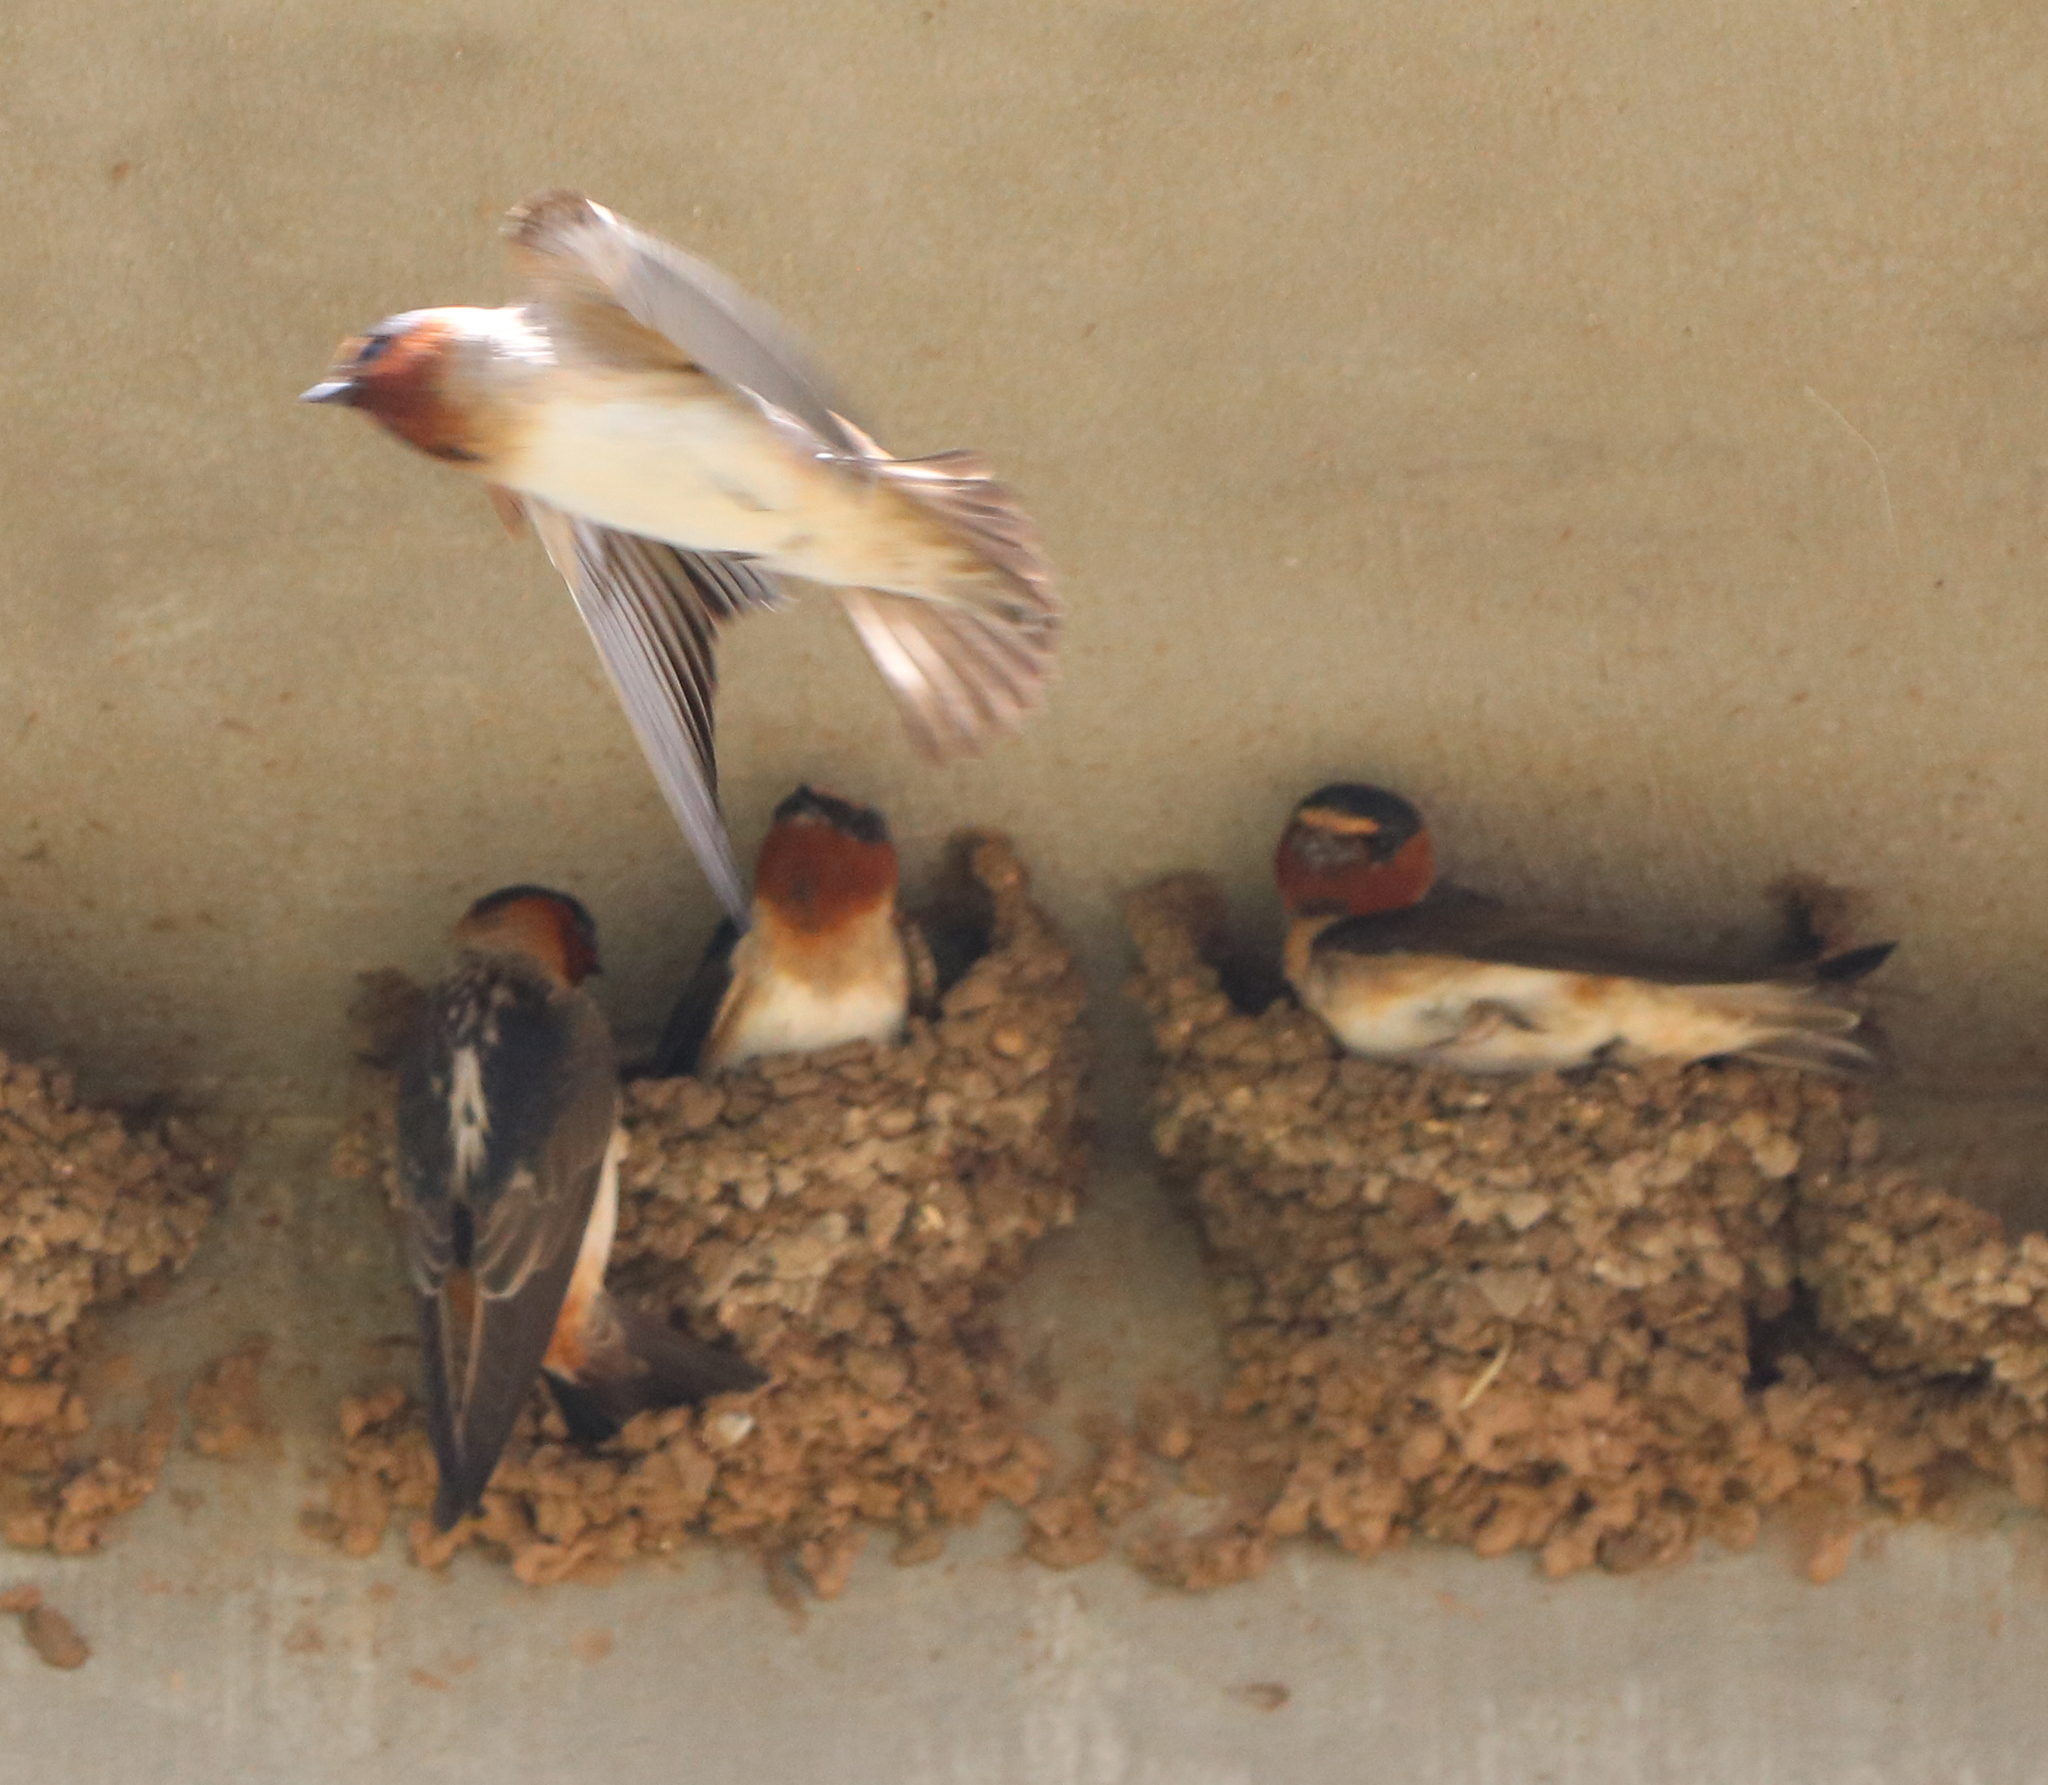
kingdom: Animalia
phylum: Chordata
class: Aves
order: Passeriformes
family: Hirundinidae
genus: Petrochelidon
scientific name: Petrochelidon pyrrhonota
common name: American cliff swallow
